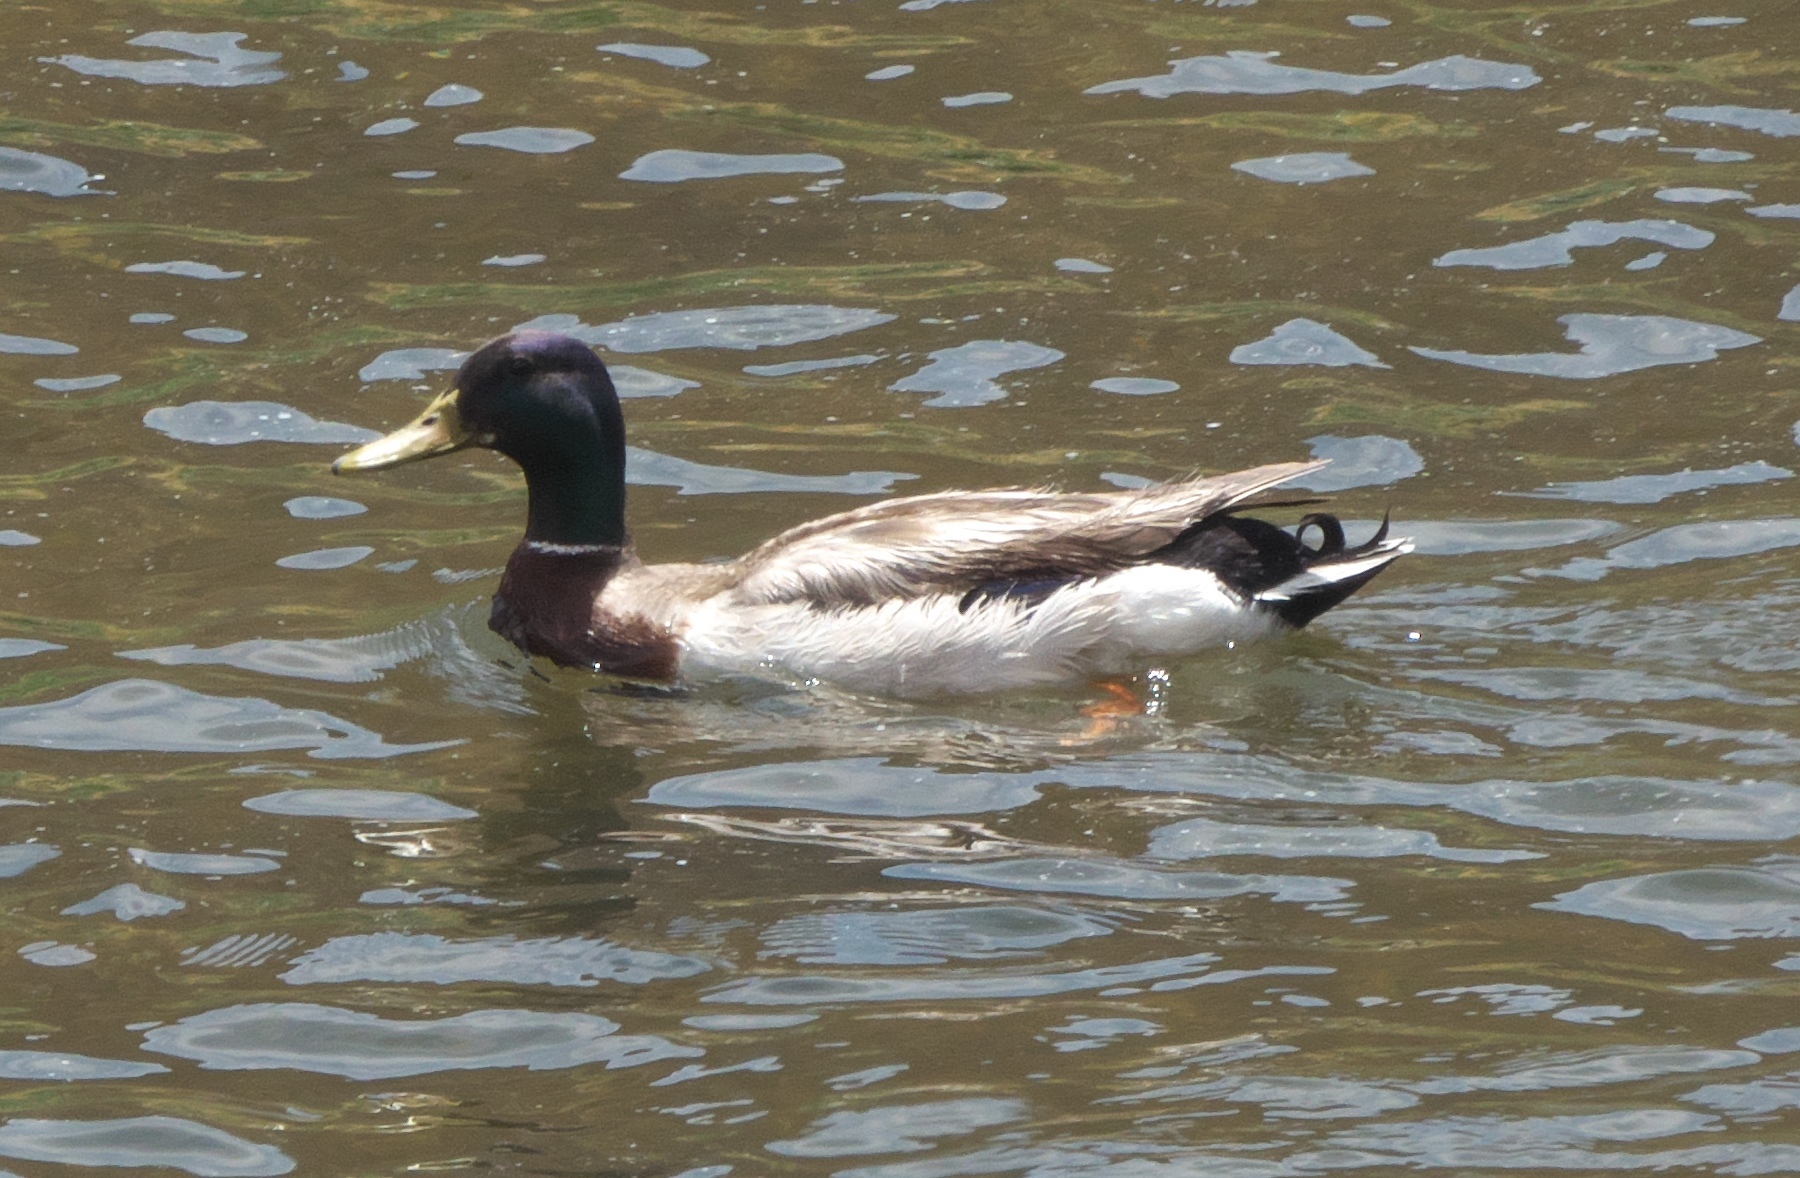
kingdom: Animalia
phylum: Chordata
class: Aves
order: Anseriformes
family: Anatidae
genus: Anas
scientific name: Anas platyrhynchos
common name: Mallard
